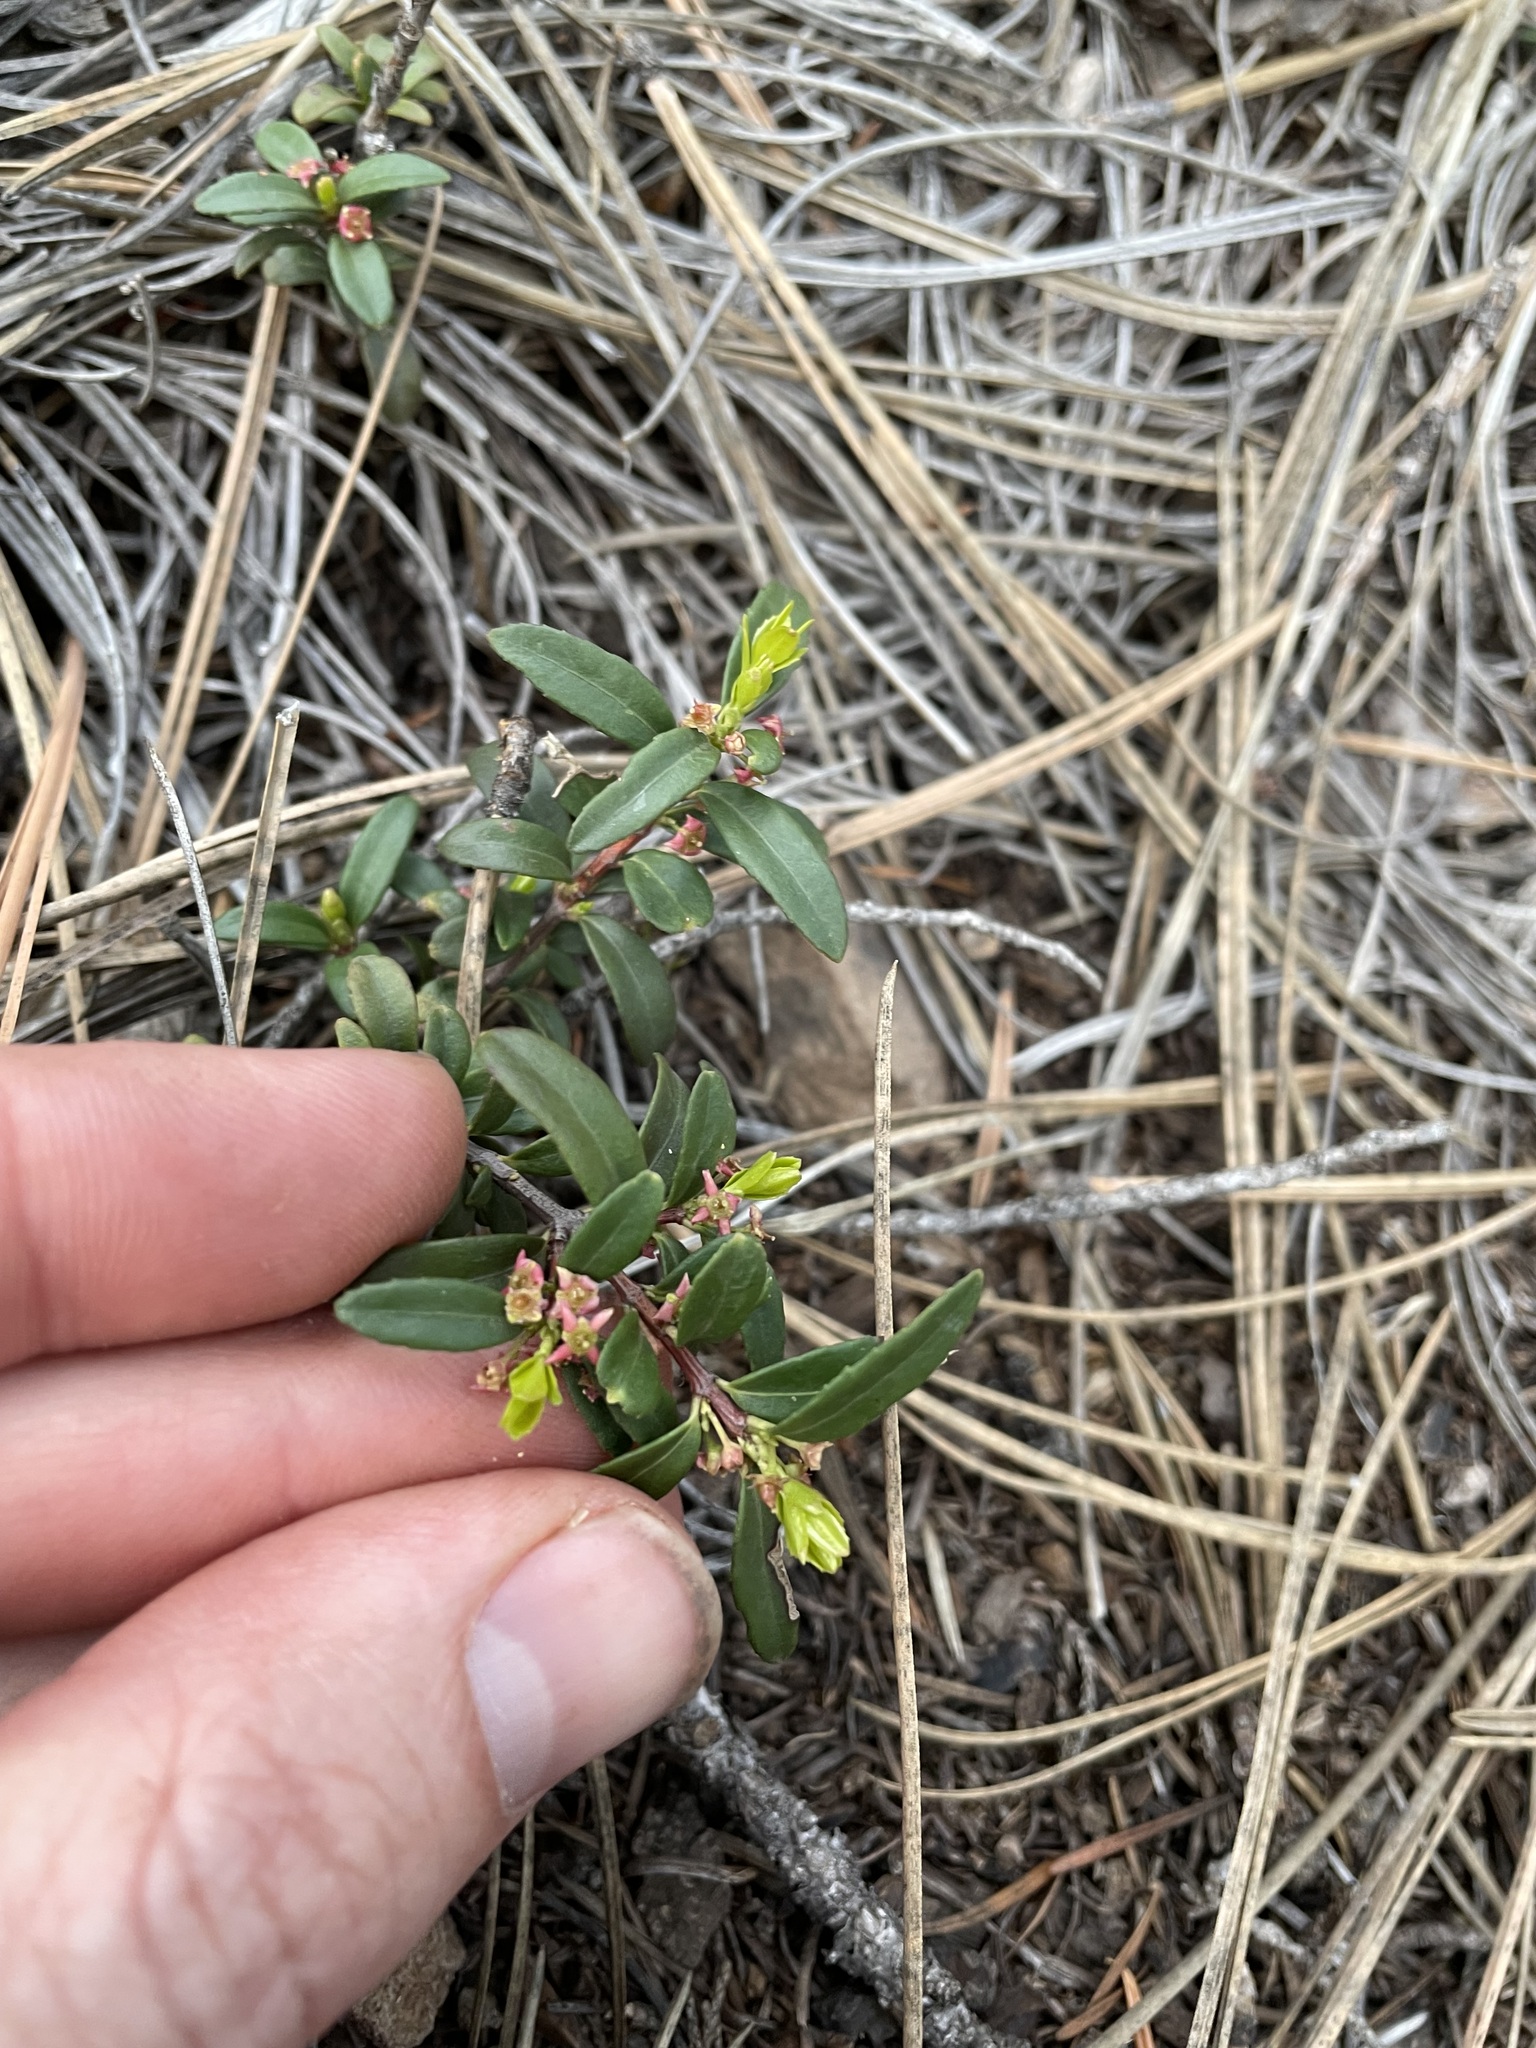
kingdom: Plantae
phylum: Tracheophyta
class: Magnoliopsida
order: Celastrales
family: Celastraceae
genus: Paxistima
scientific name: Paxistima myrsinites
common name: Mountain-lover
